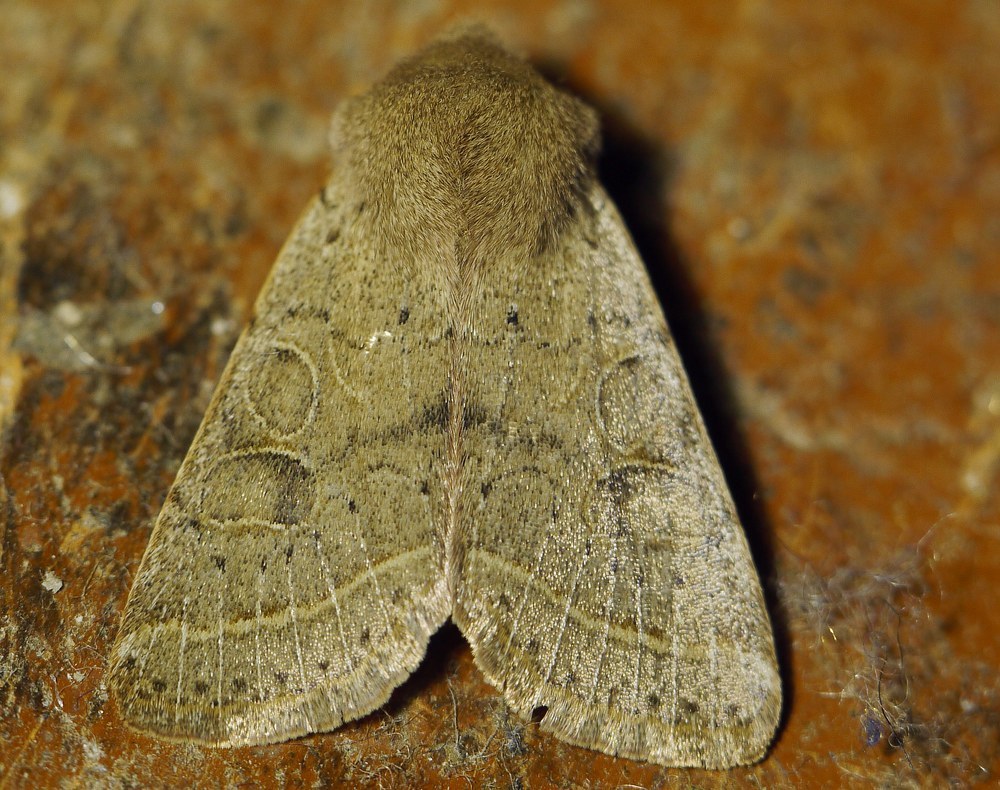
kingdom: Animalia
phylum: Arthropoda
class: Insecta
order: Lepidoptera
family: Noctuidae
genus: Orthosia
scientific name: Orthosia cerasi
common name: Common quaker
